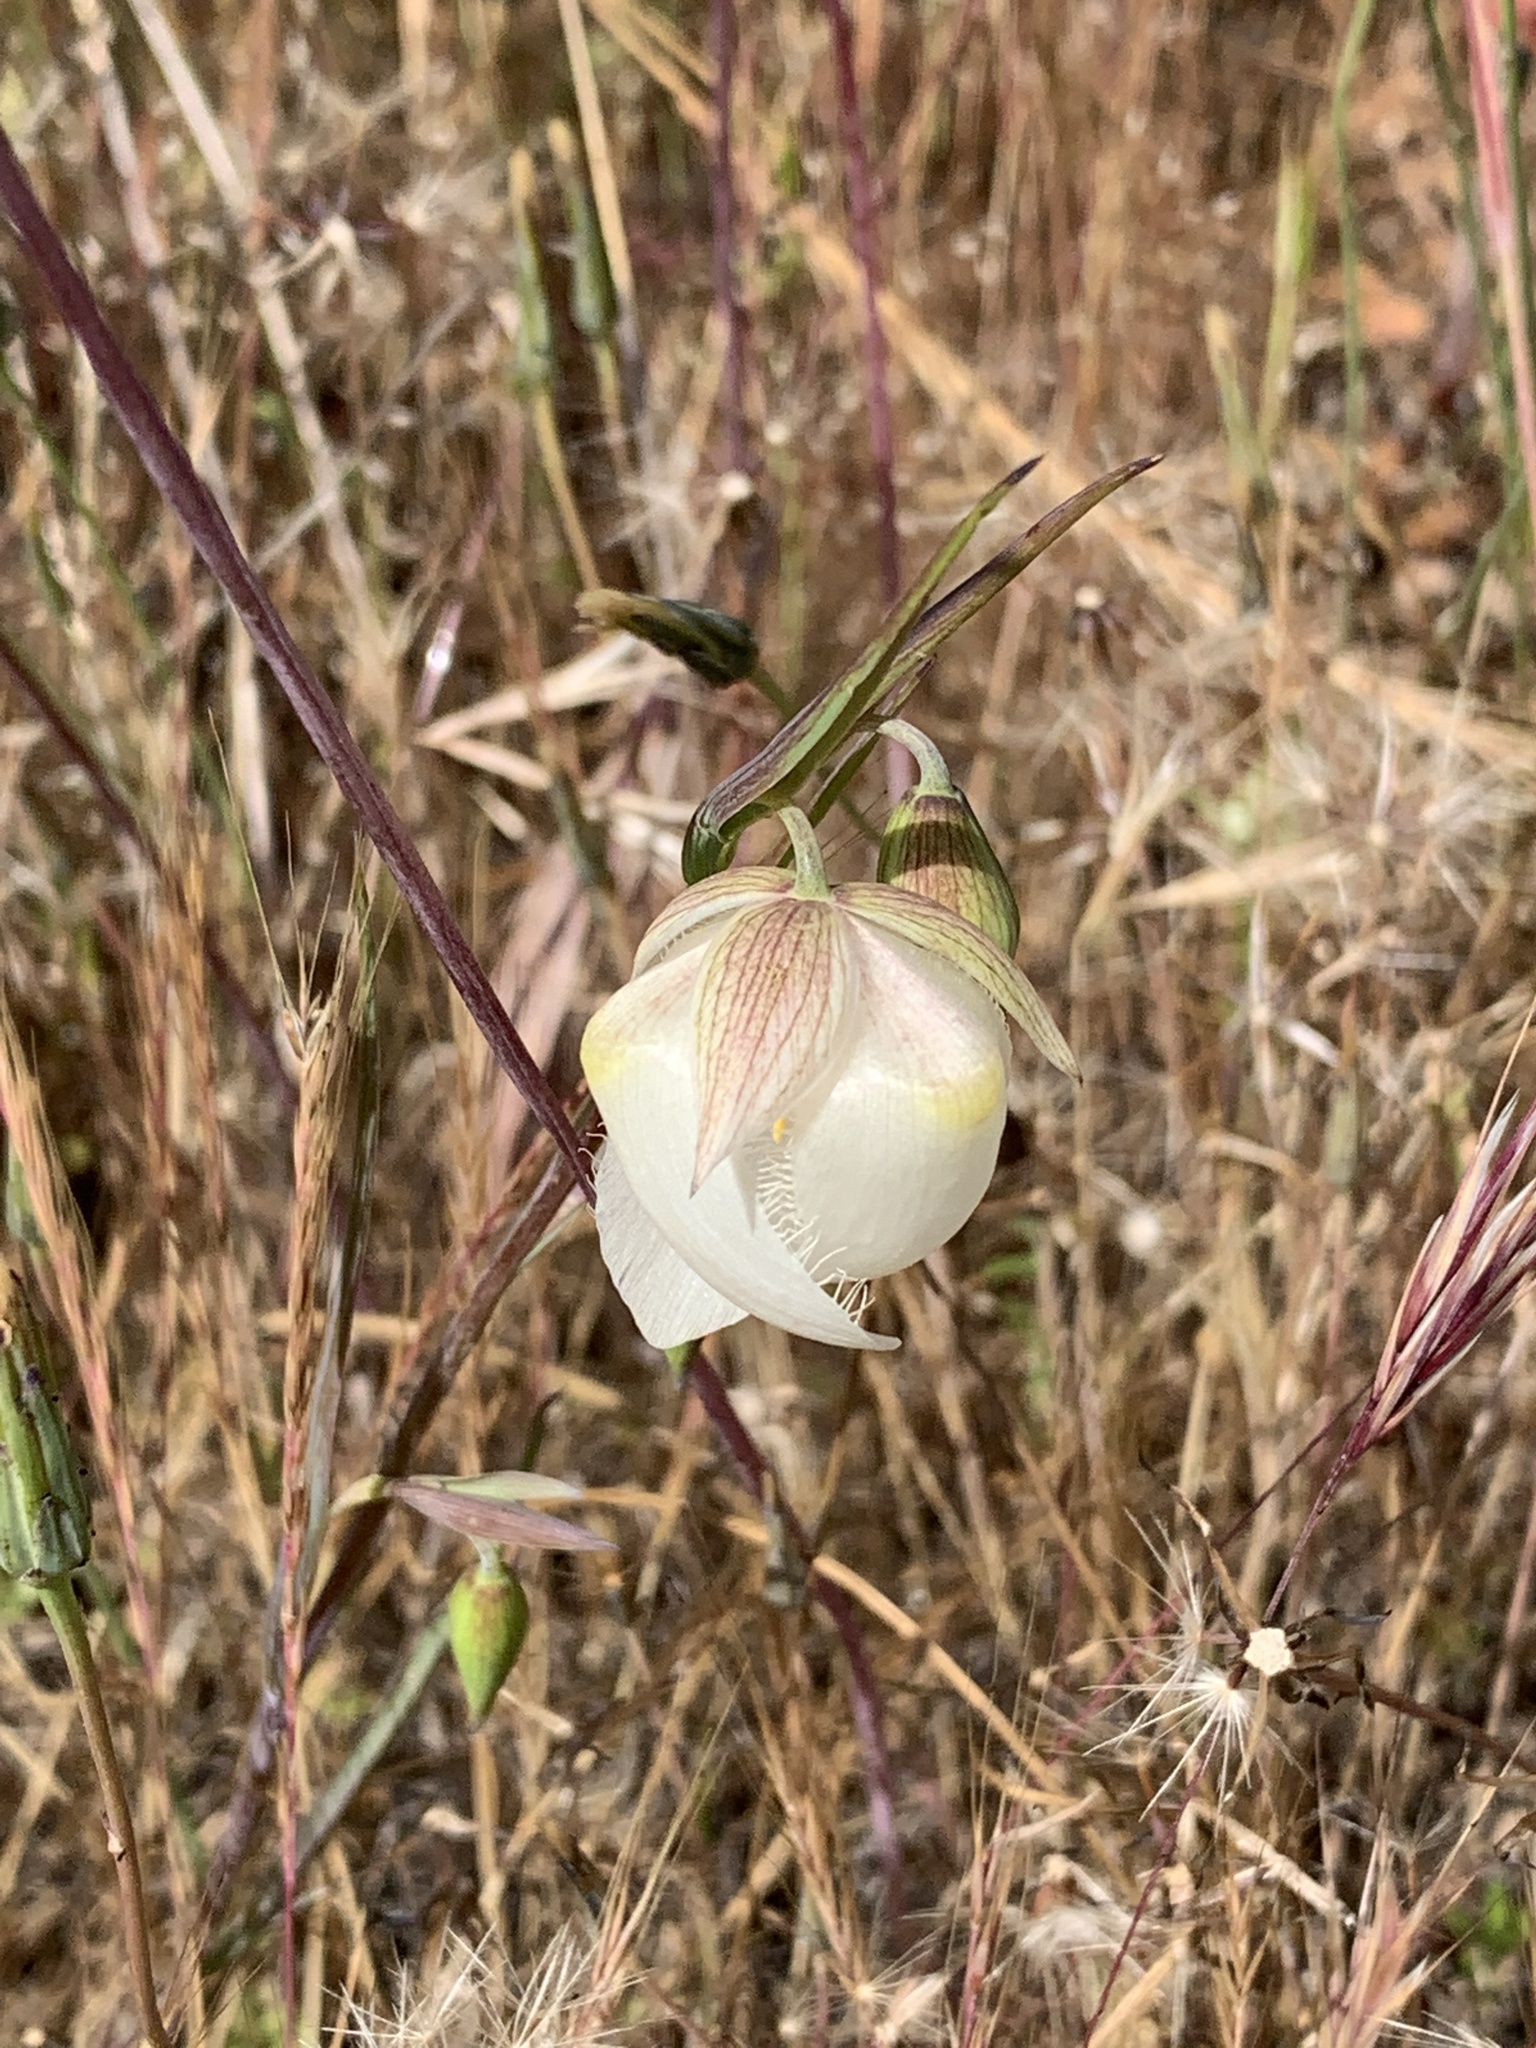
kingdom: Plantae
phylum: Tracheophyta
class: Liliopsida
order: Liliales
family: Liliaceae
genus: Calochortus
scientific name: Calochortus albus
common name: Fairy-lantern
